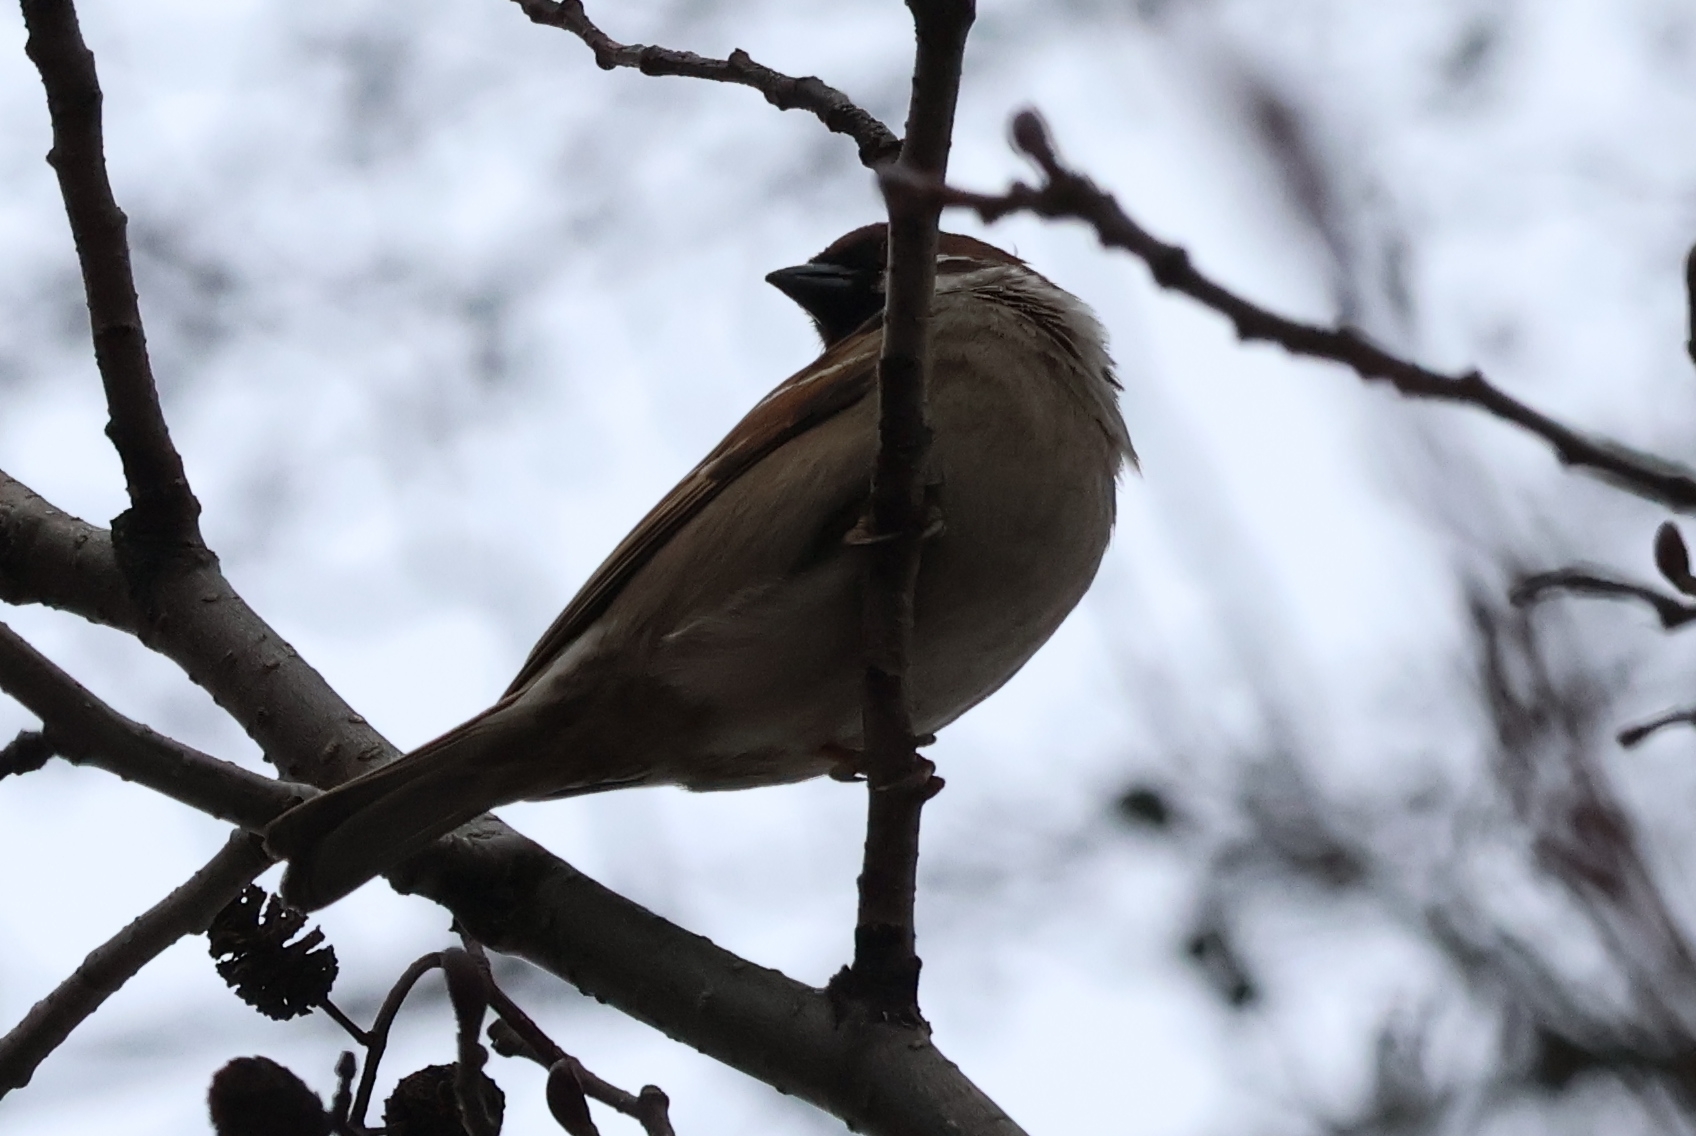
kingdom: Animalia
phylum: Chordata
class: Aves
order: Passeriformes
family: Passeridae
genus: Passer
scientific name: Passer montanus
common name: Eurasian tree sparrow
